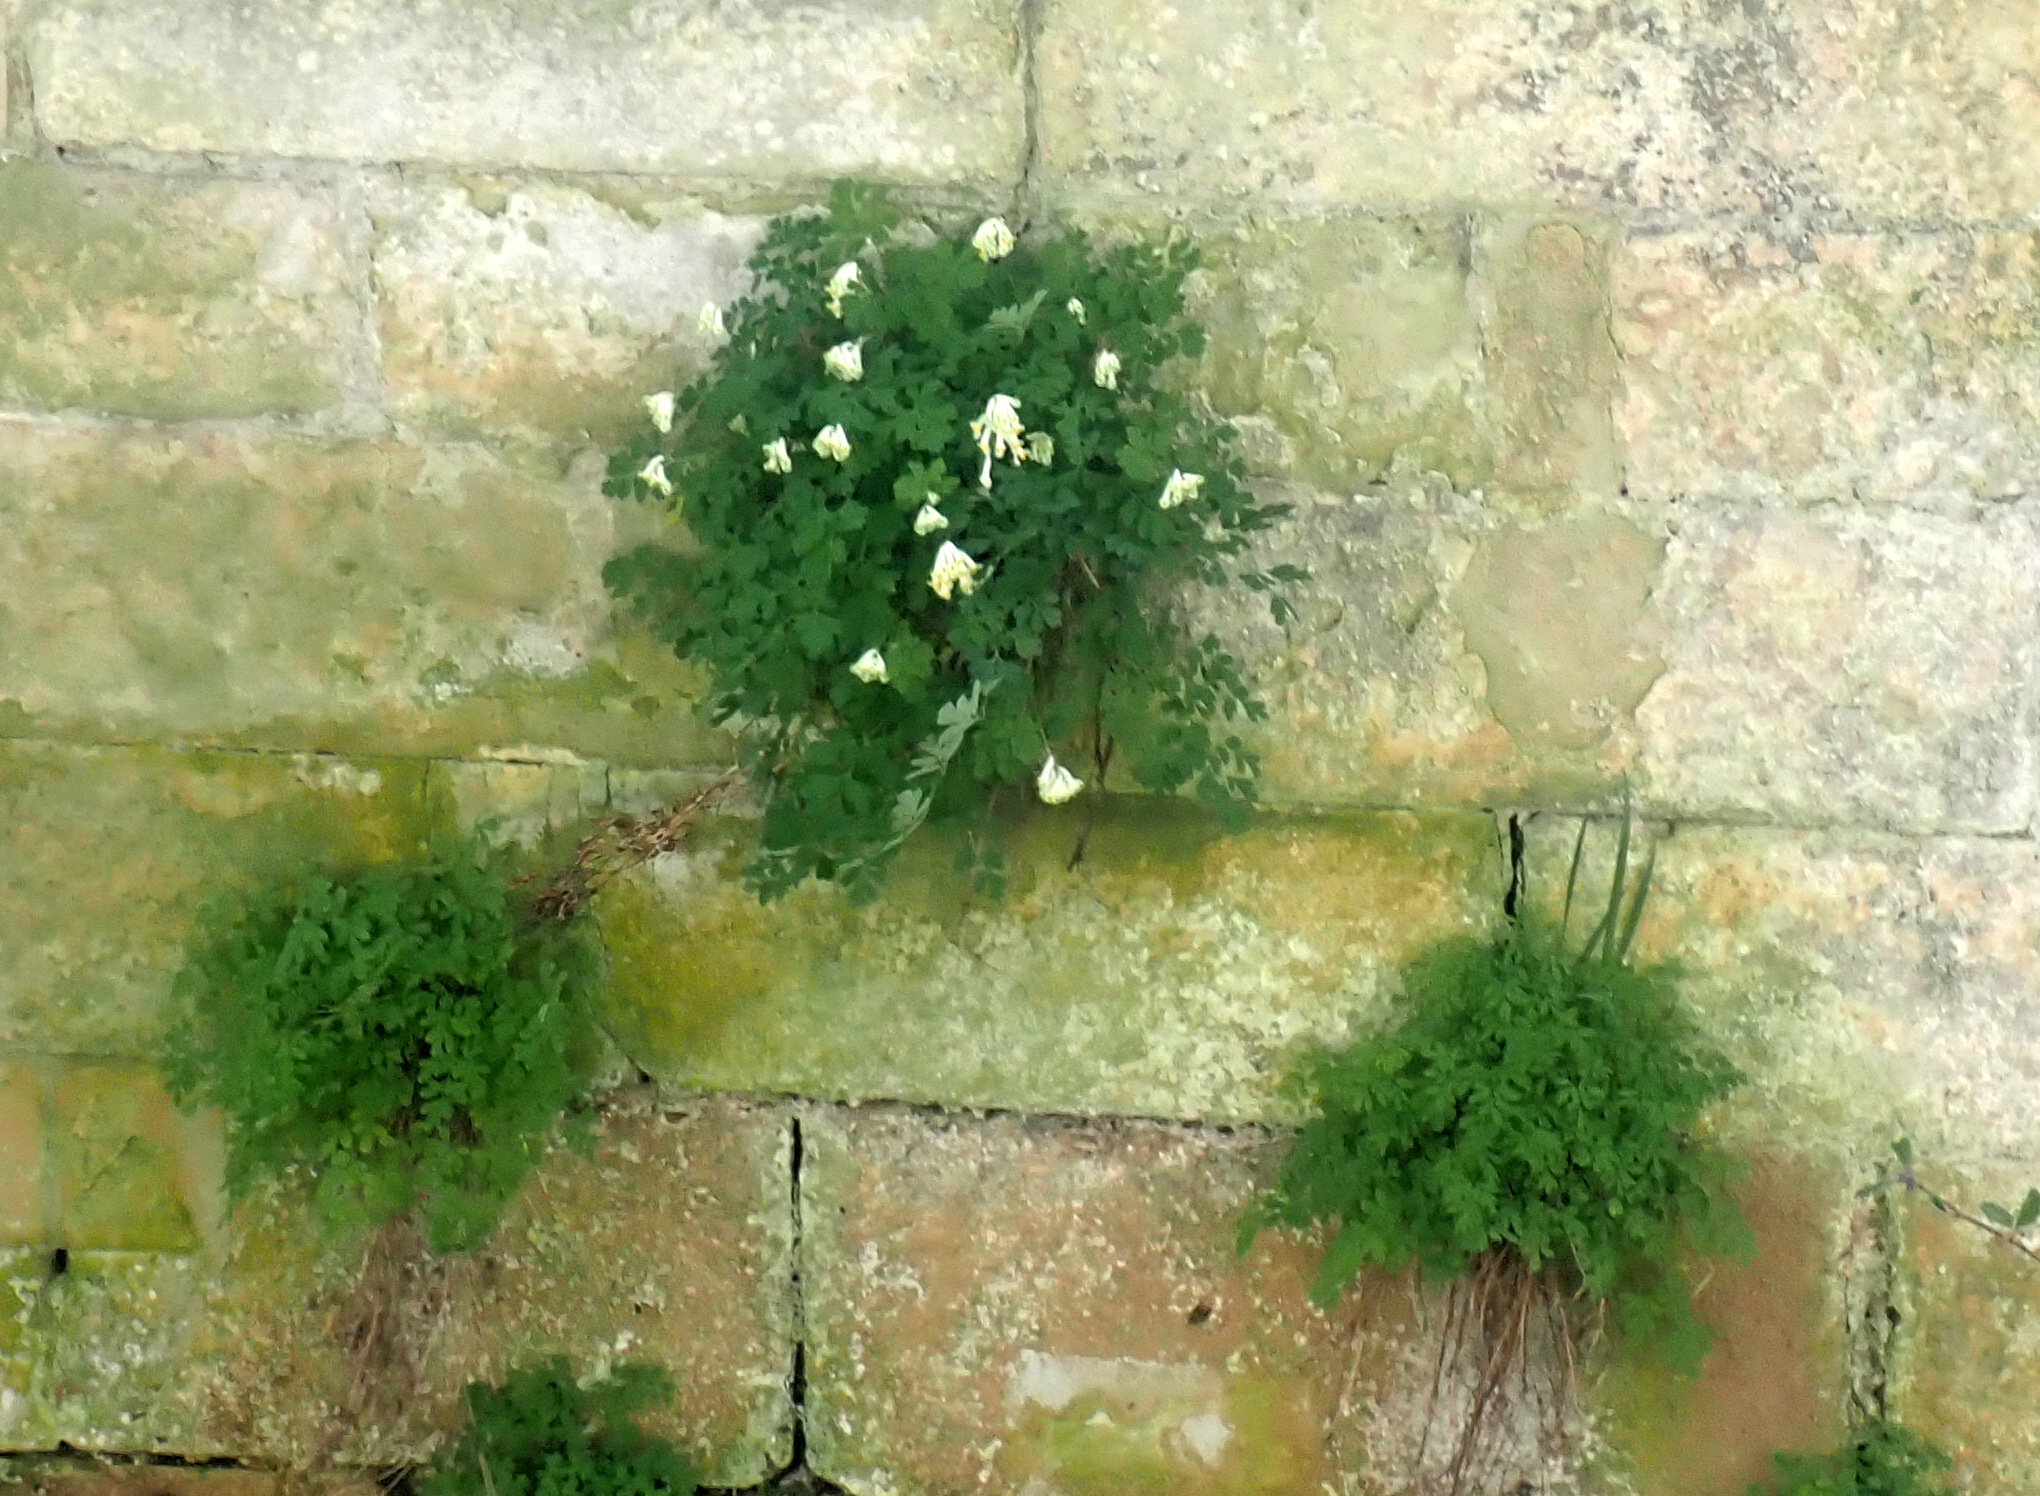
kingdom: Plantae
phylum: Tracheophyta
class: Magnoliopsida
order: Ranunculales
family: Papaveraceae
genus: Pseudofumaria
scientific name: Pseudofumaria alba
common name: Pale corydalis
